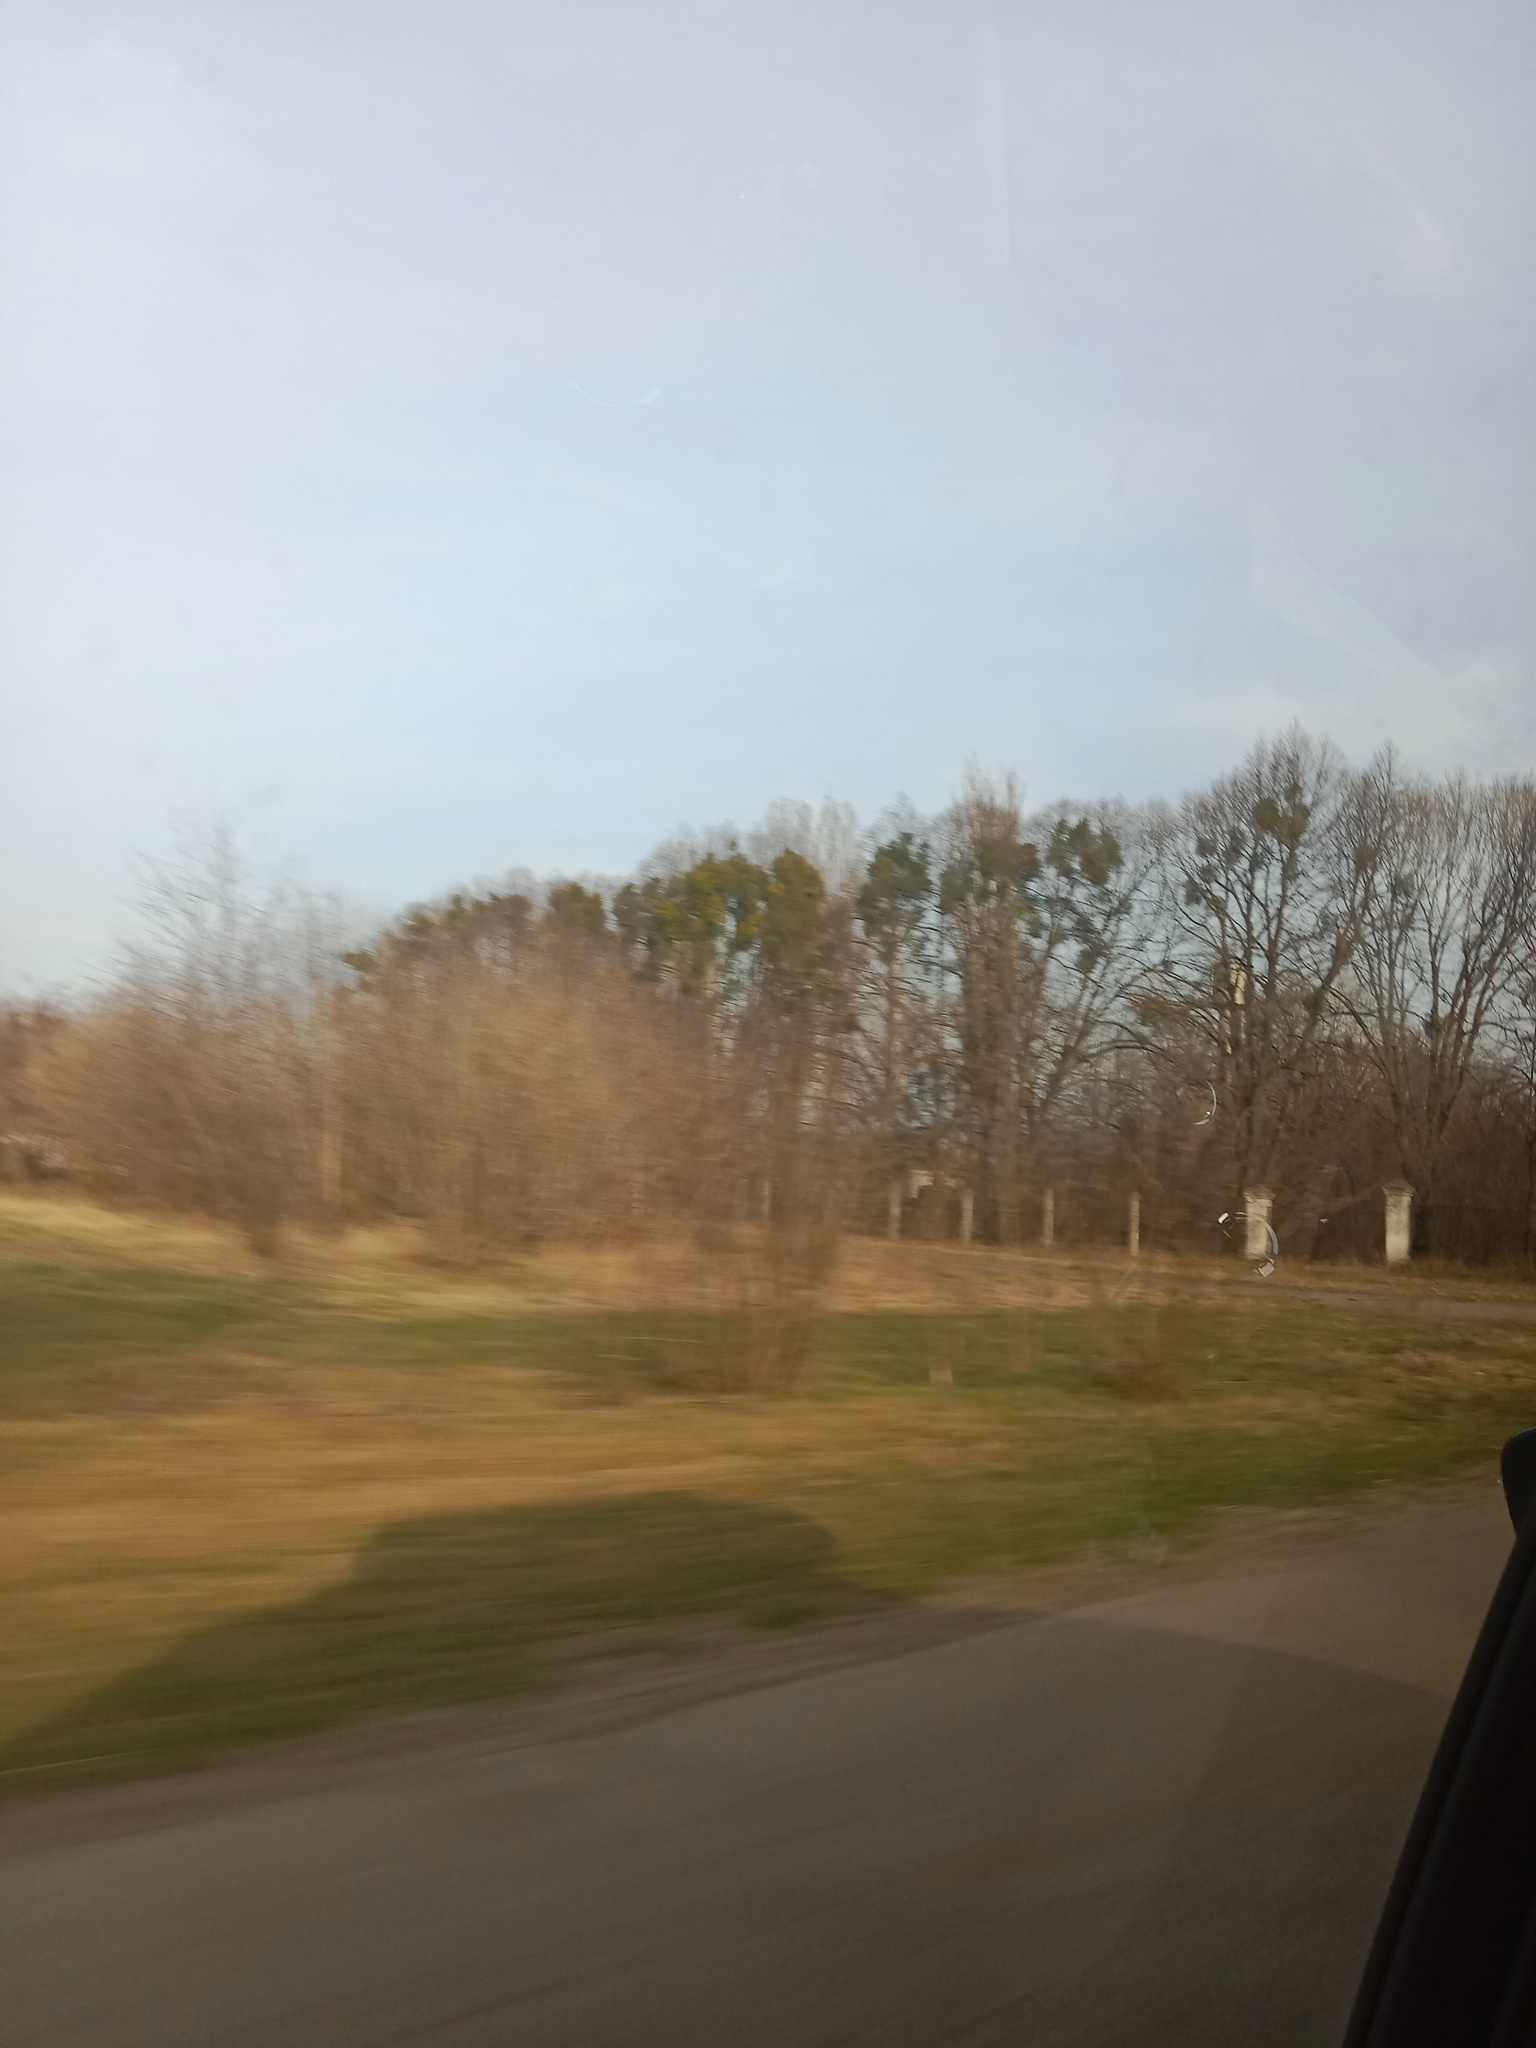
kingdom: Plantae
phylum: Tracheophyta
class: Magnoliopsida
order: Santalales
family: Viscaceae
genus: Viscum
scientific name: Viscum album
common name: Mistletoe
